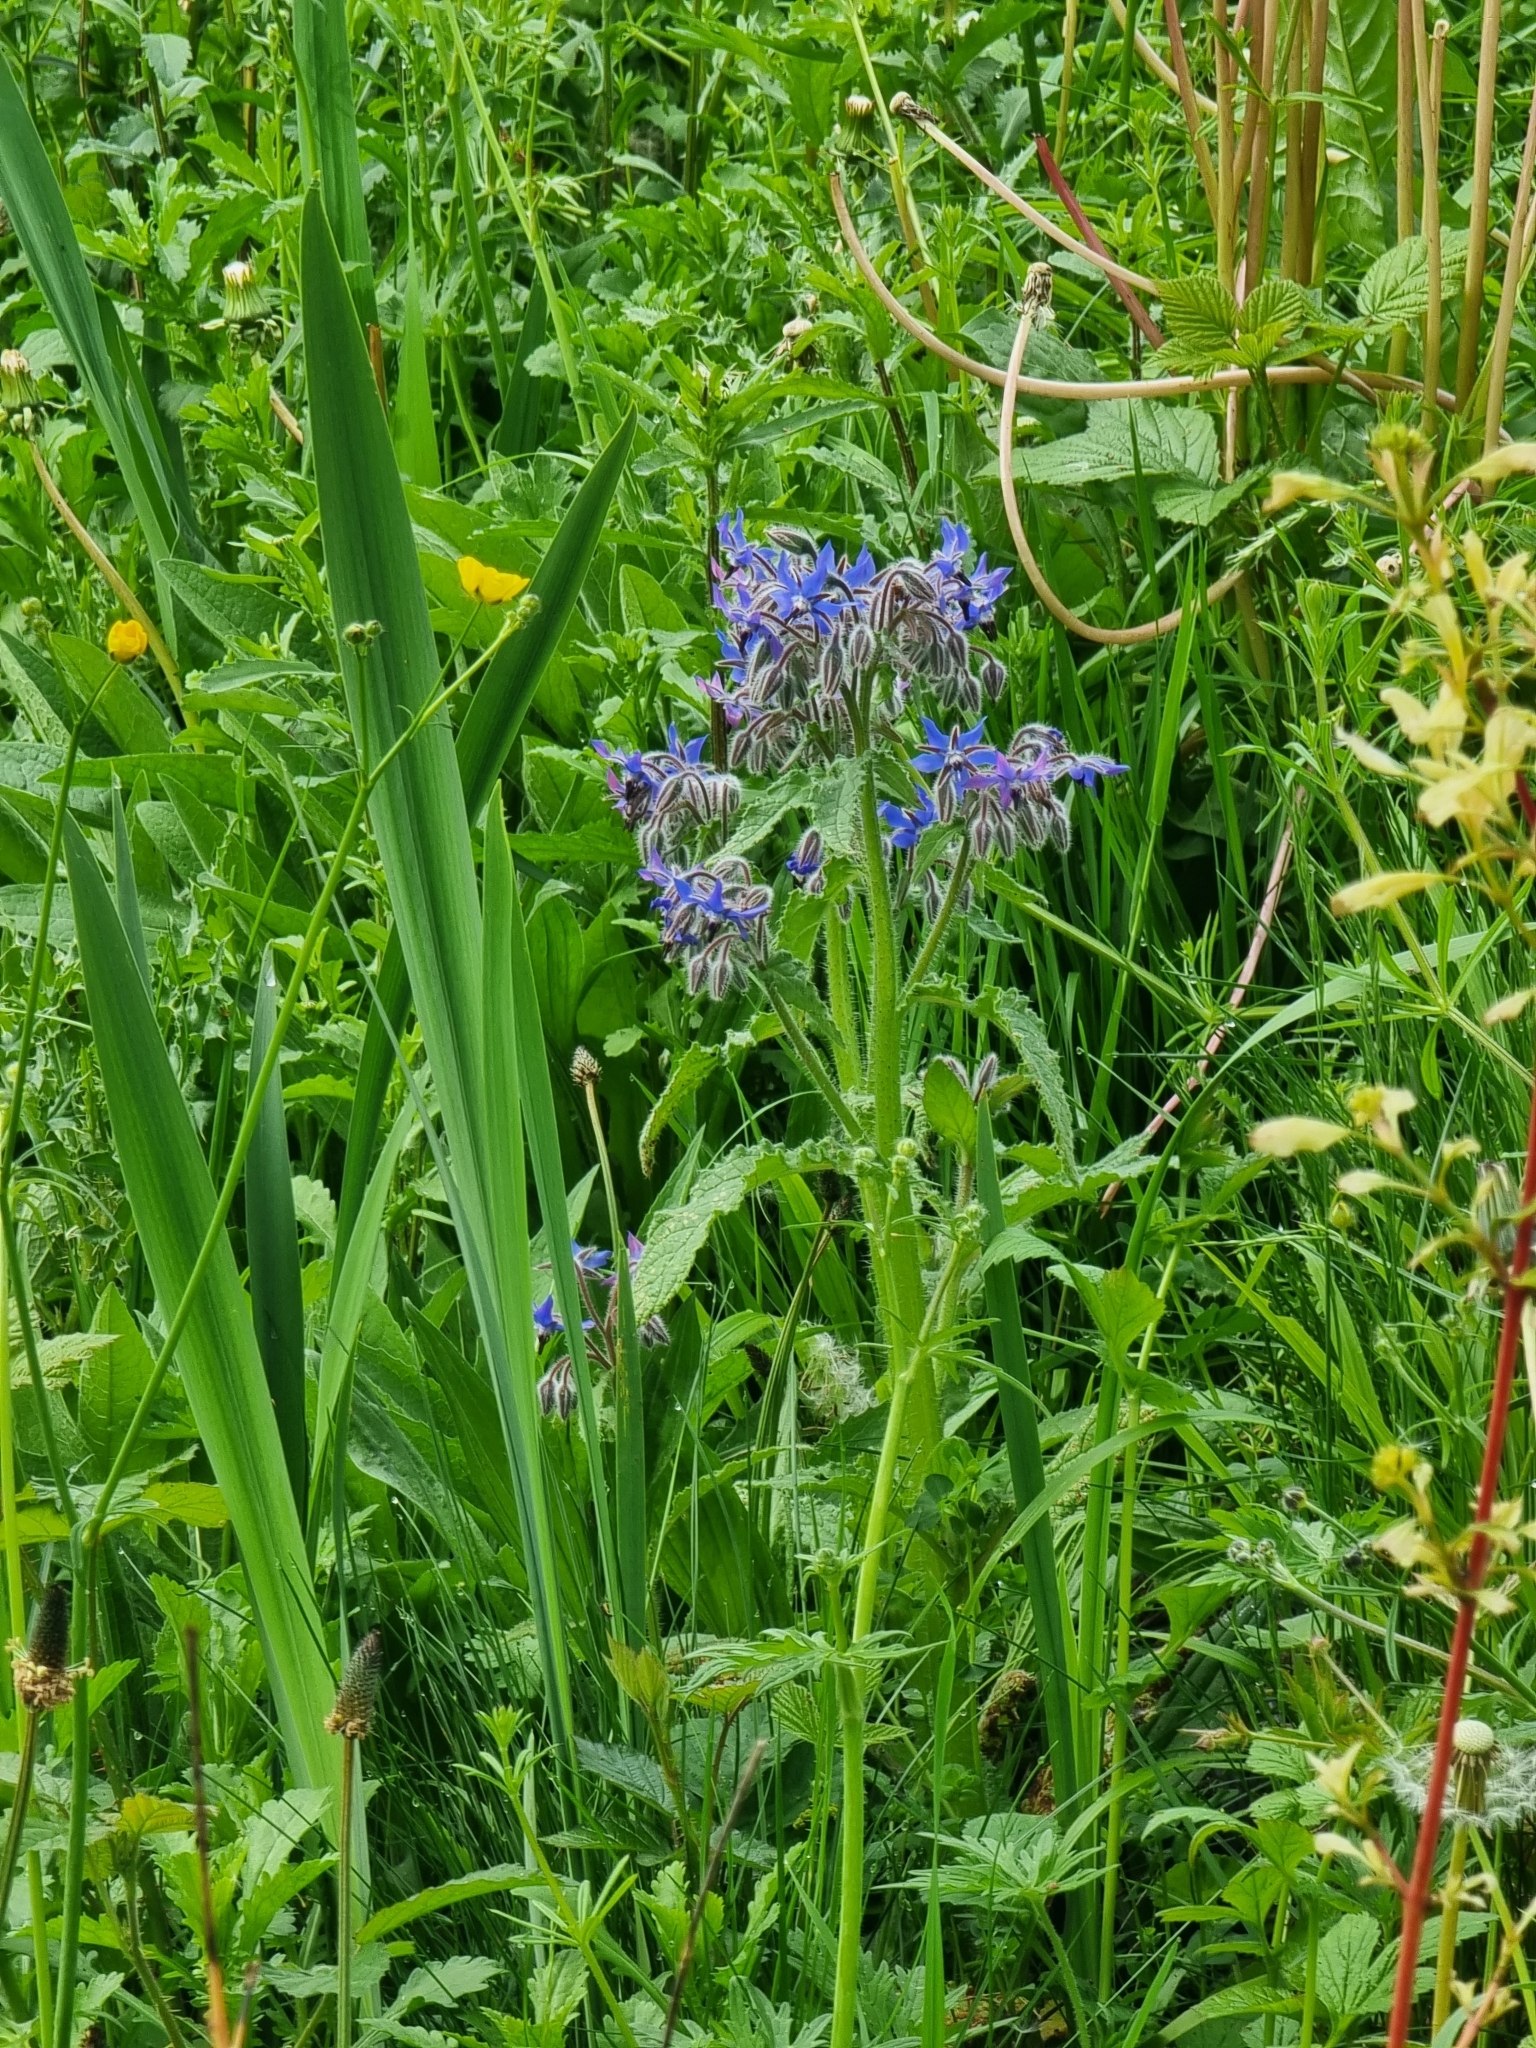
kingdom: Plantae
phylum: Tracheophyta
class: Magnoliopsida
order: Boraginales
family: Boraginaceae
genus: Borago
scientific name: Borago officinalis
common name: Borage
